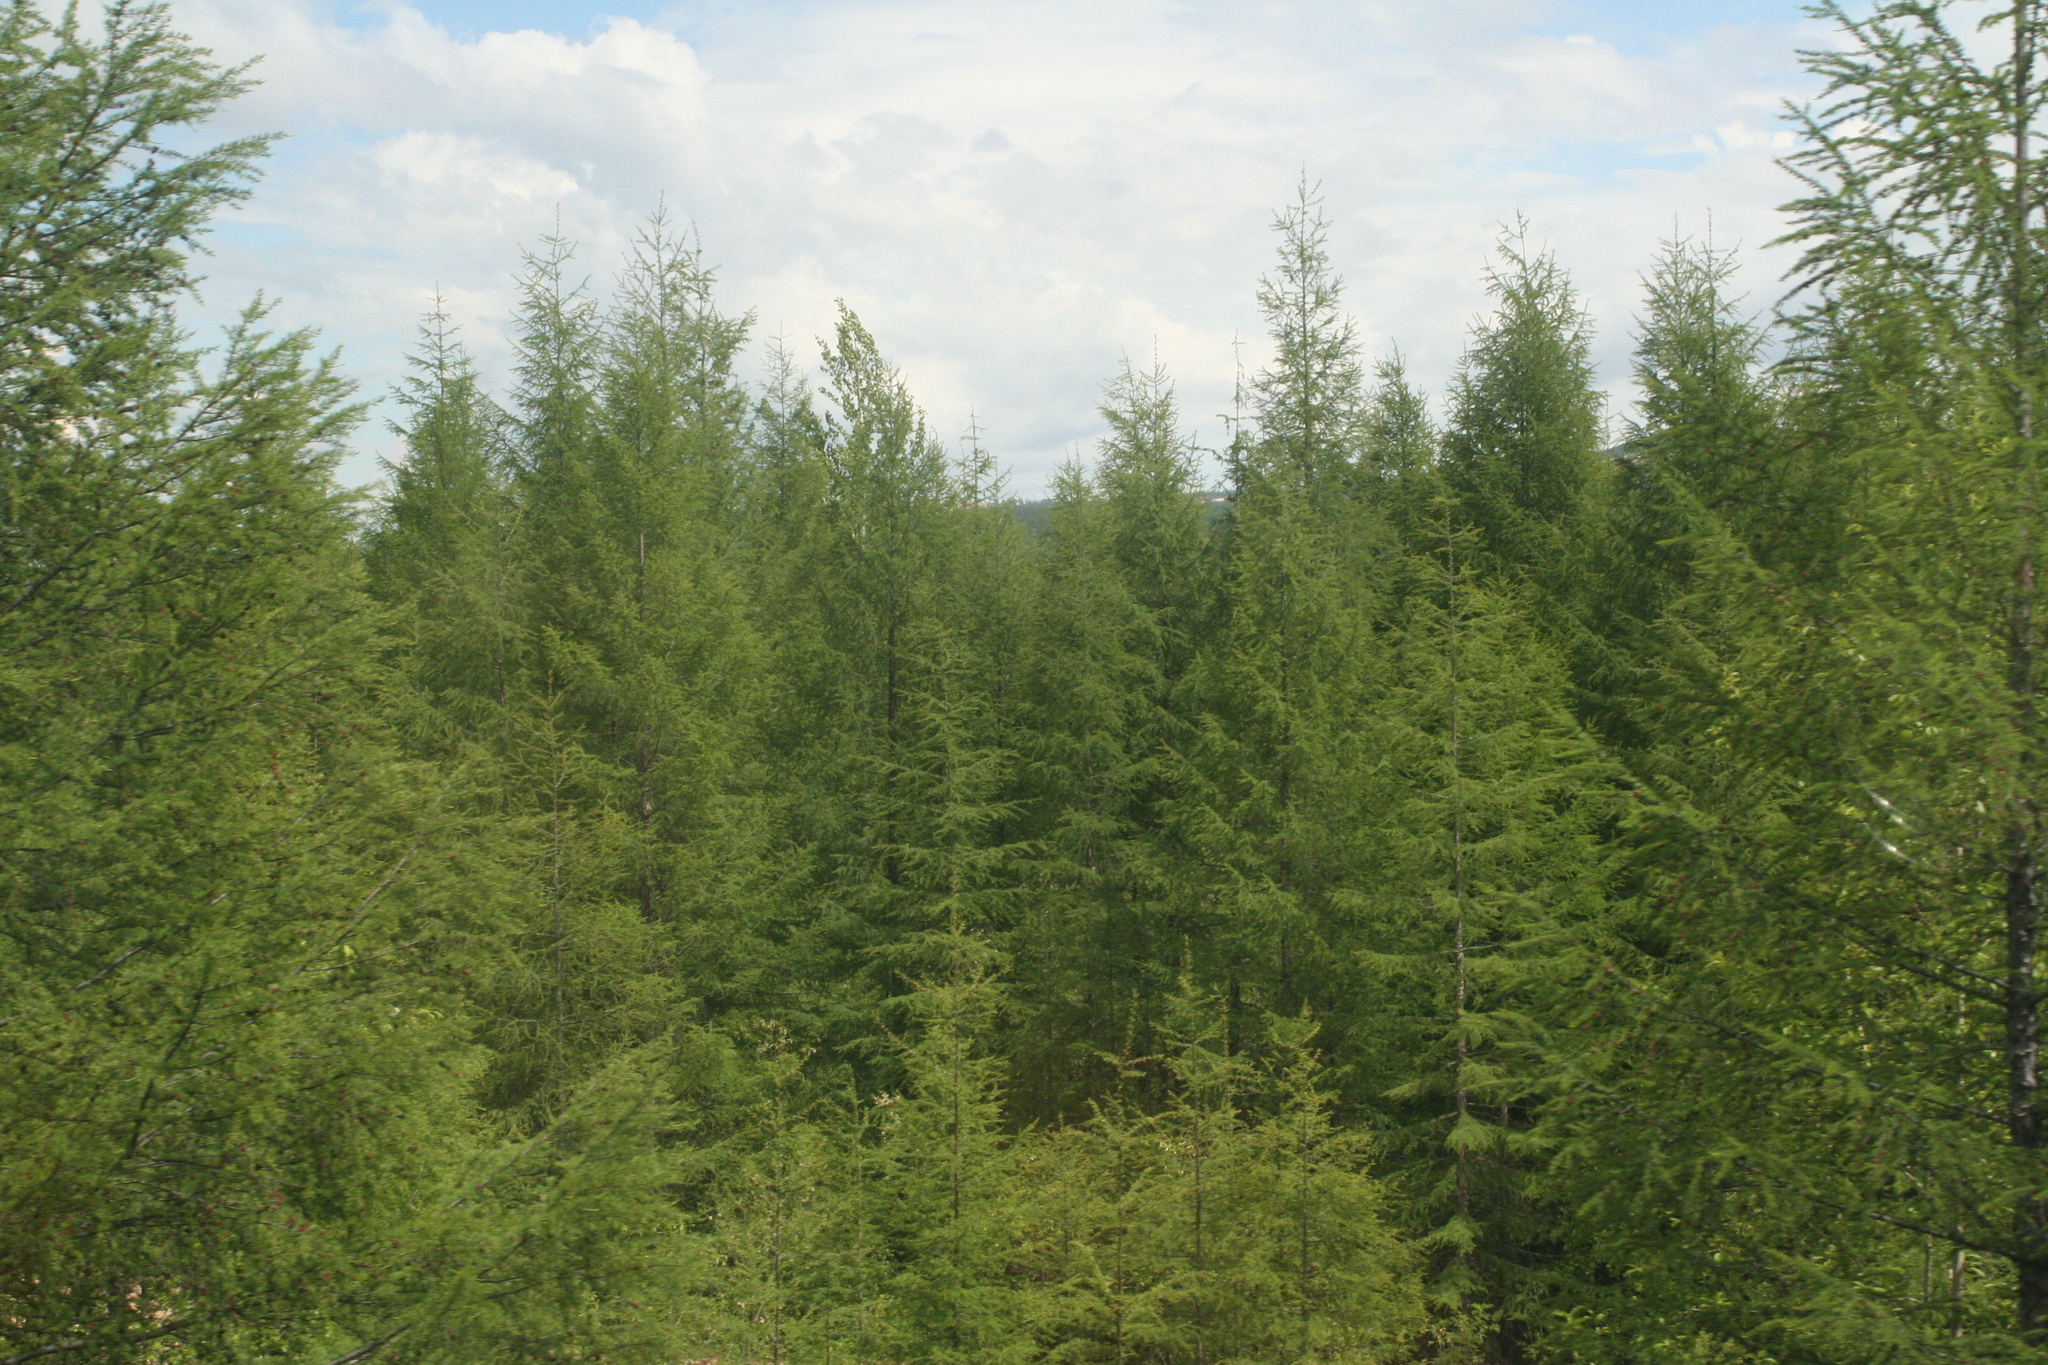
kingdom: Plantae
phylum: Tracheophyta
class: Pinopsida
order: Pinales
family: Pinaceae
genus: Larix
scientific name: Larix gmelinii
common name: Dahurian larch
